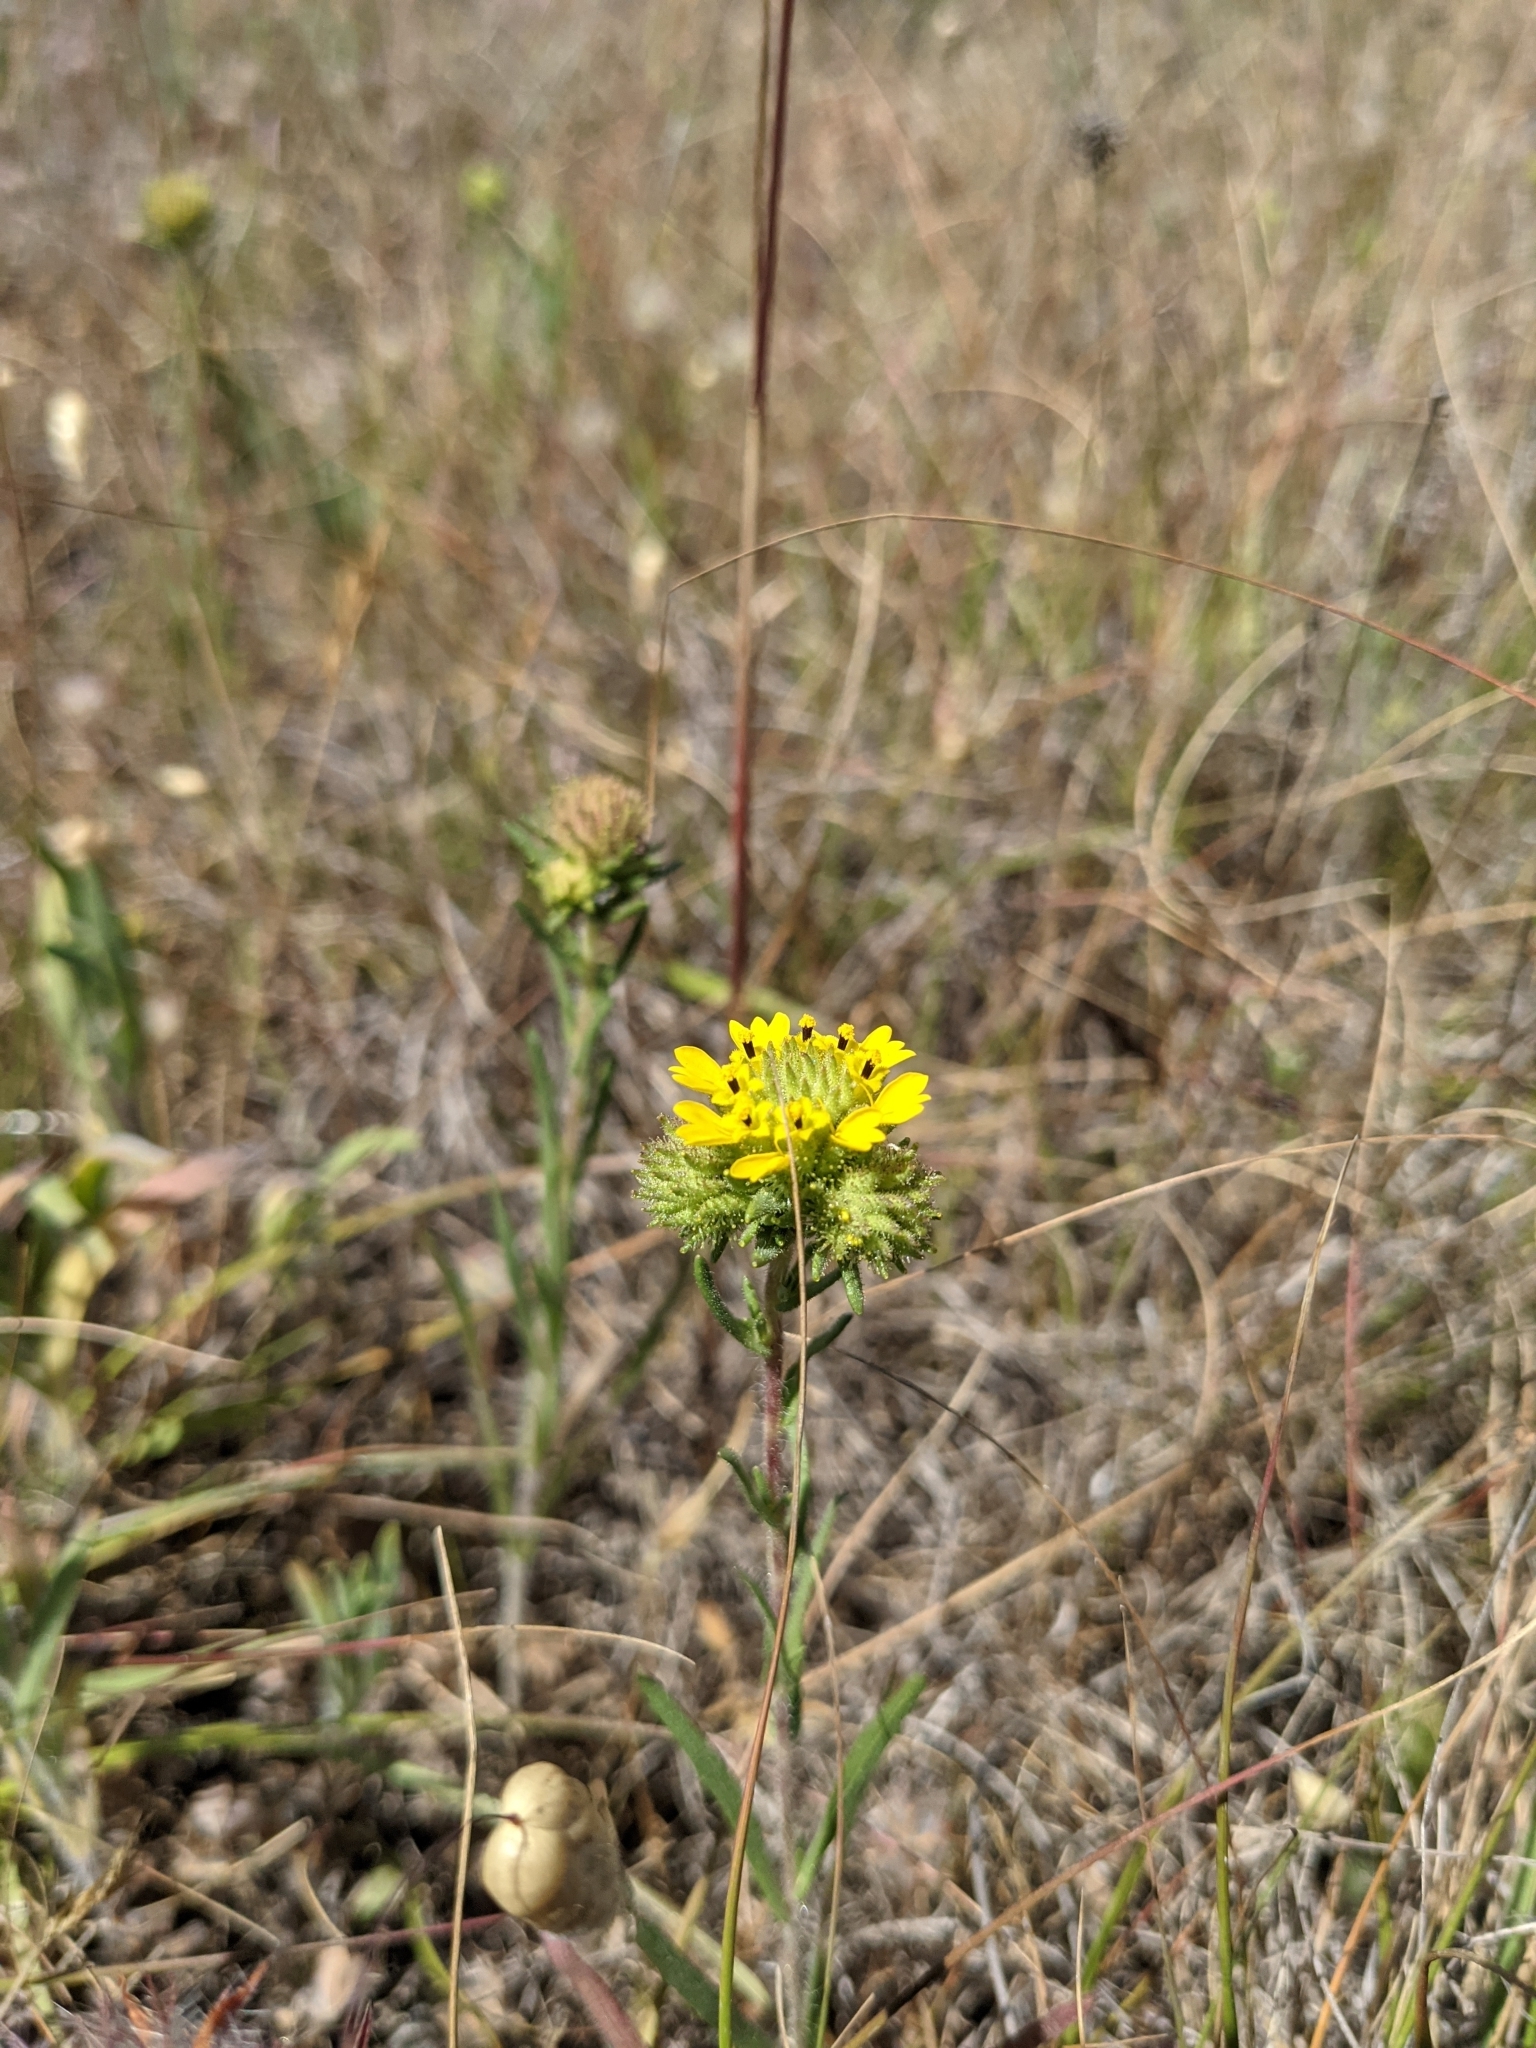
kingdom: Plantae
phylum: Tracheophyta
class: Magnoliopsida
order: Asterales
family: Asteraceae
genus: Holocarpha
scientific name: Holocarpha macradenia
